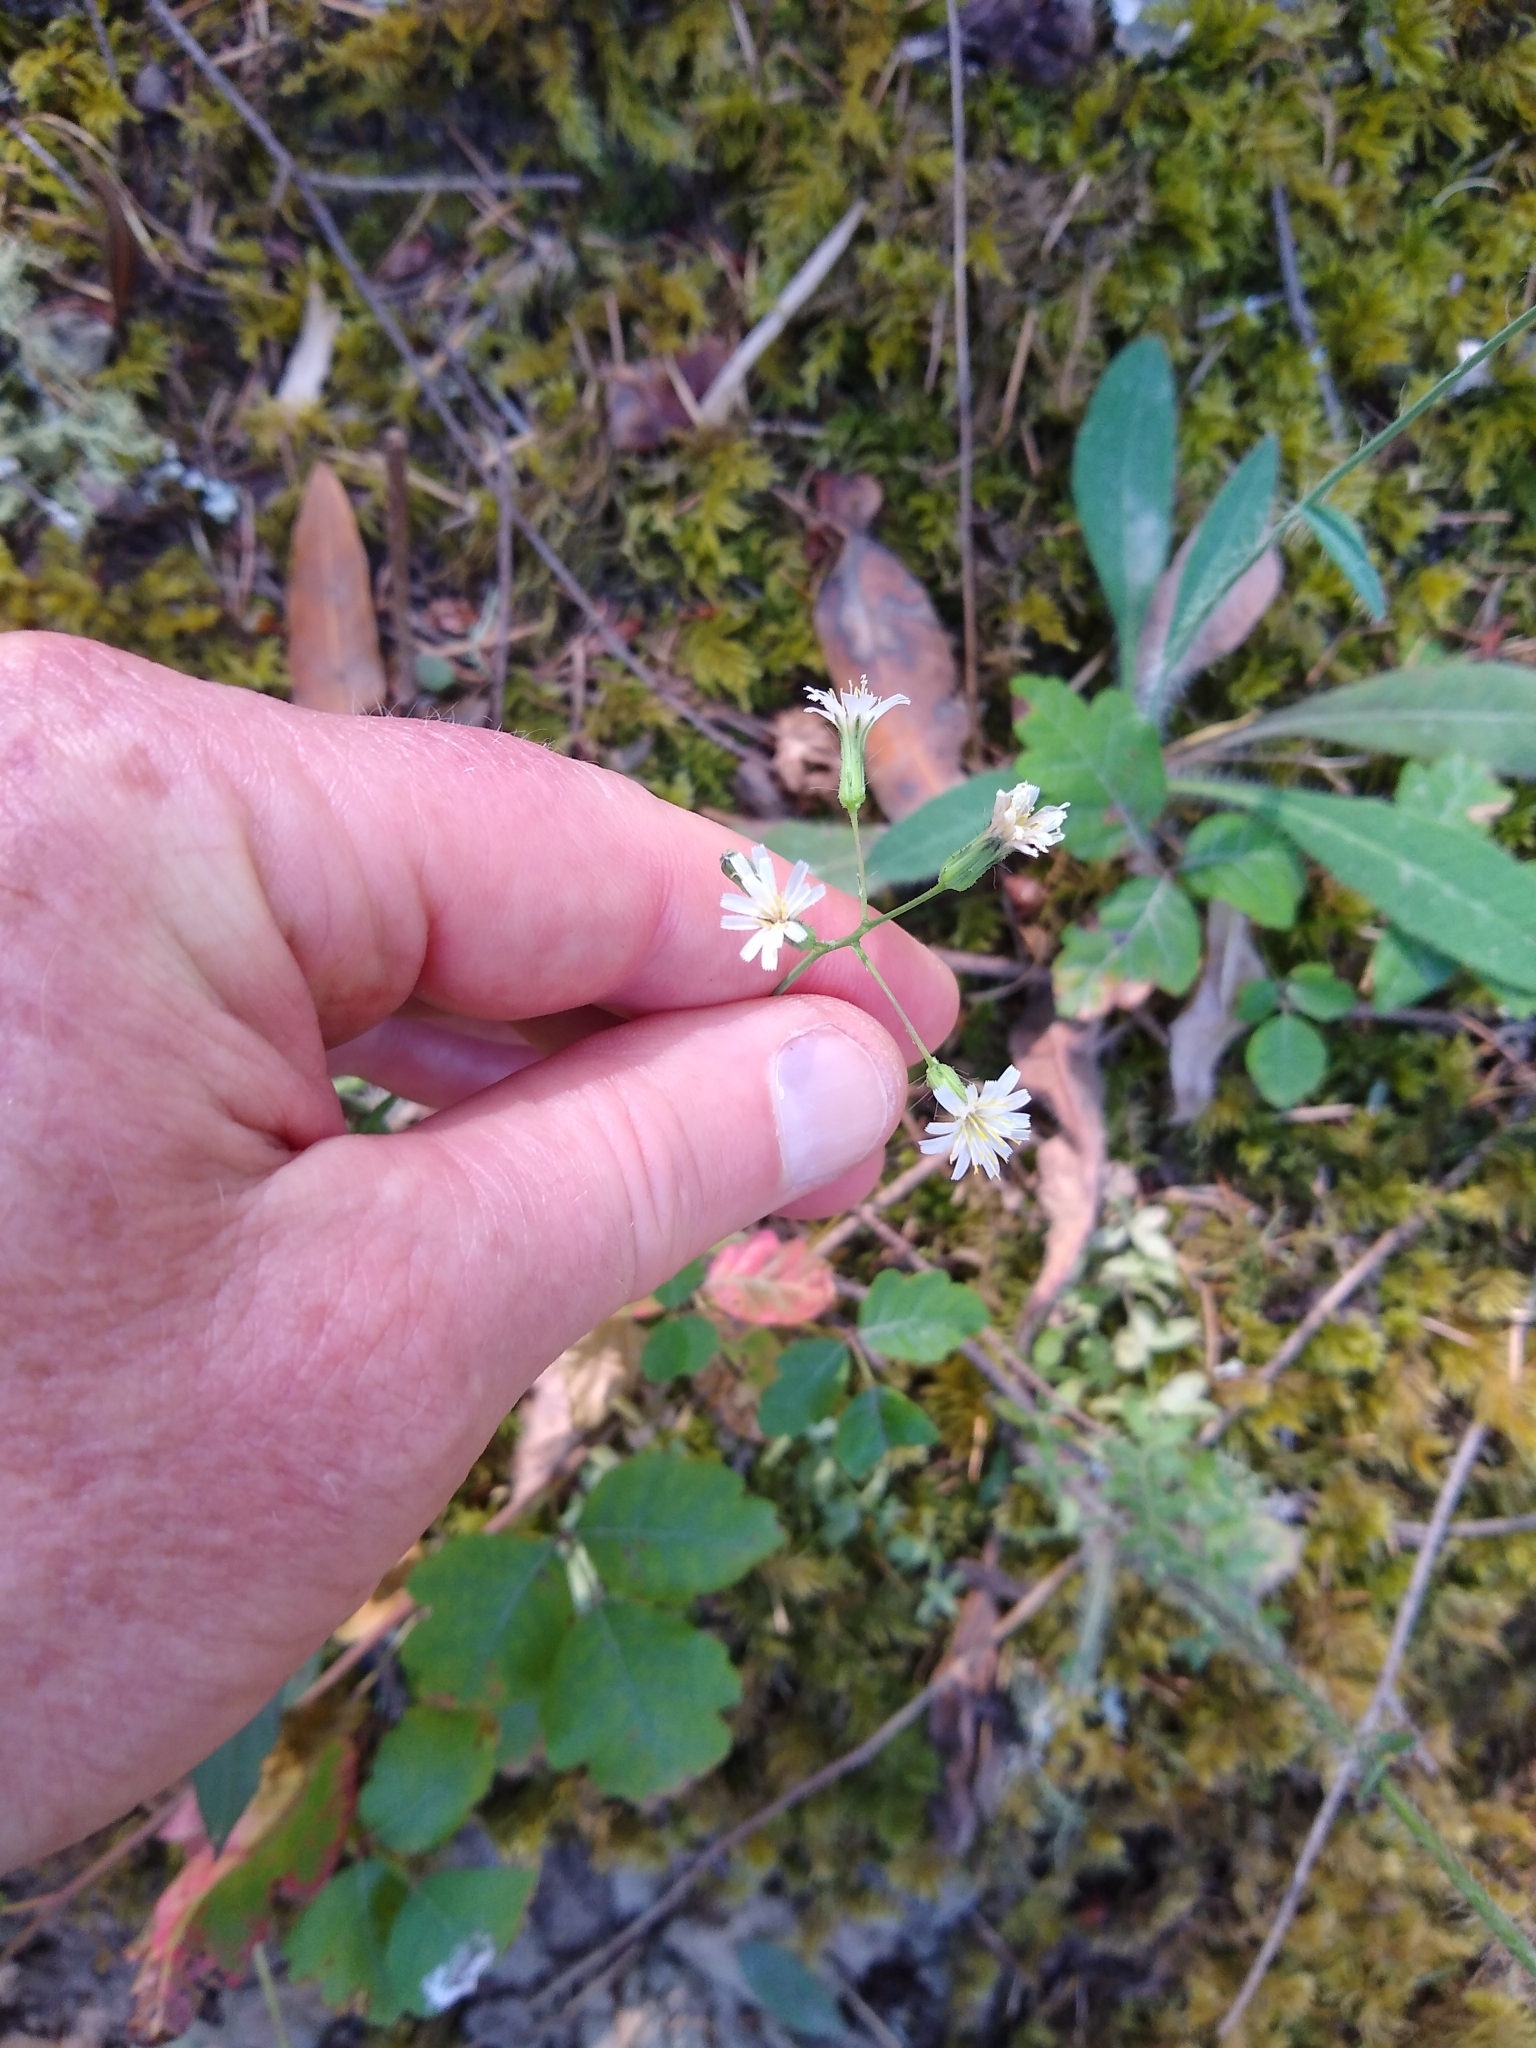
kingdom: Plantae
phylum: Tracheophyta
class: Magnoliopsida
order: Asterales
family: Asteraceae
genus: Hieracium
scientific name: Hieracium albiflorum
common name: White hawkweed
